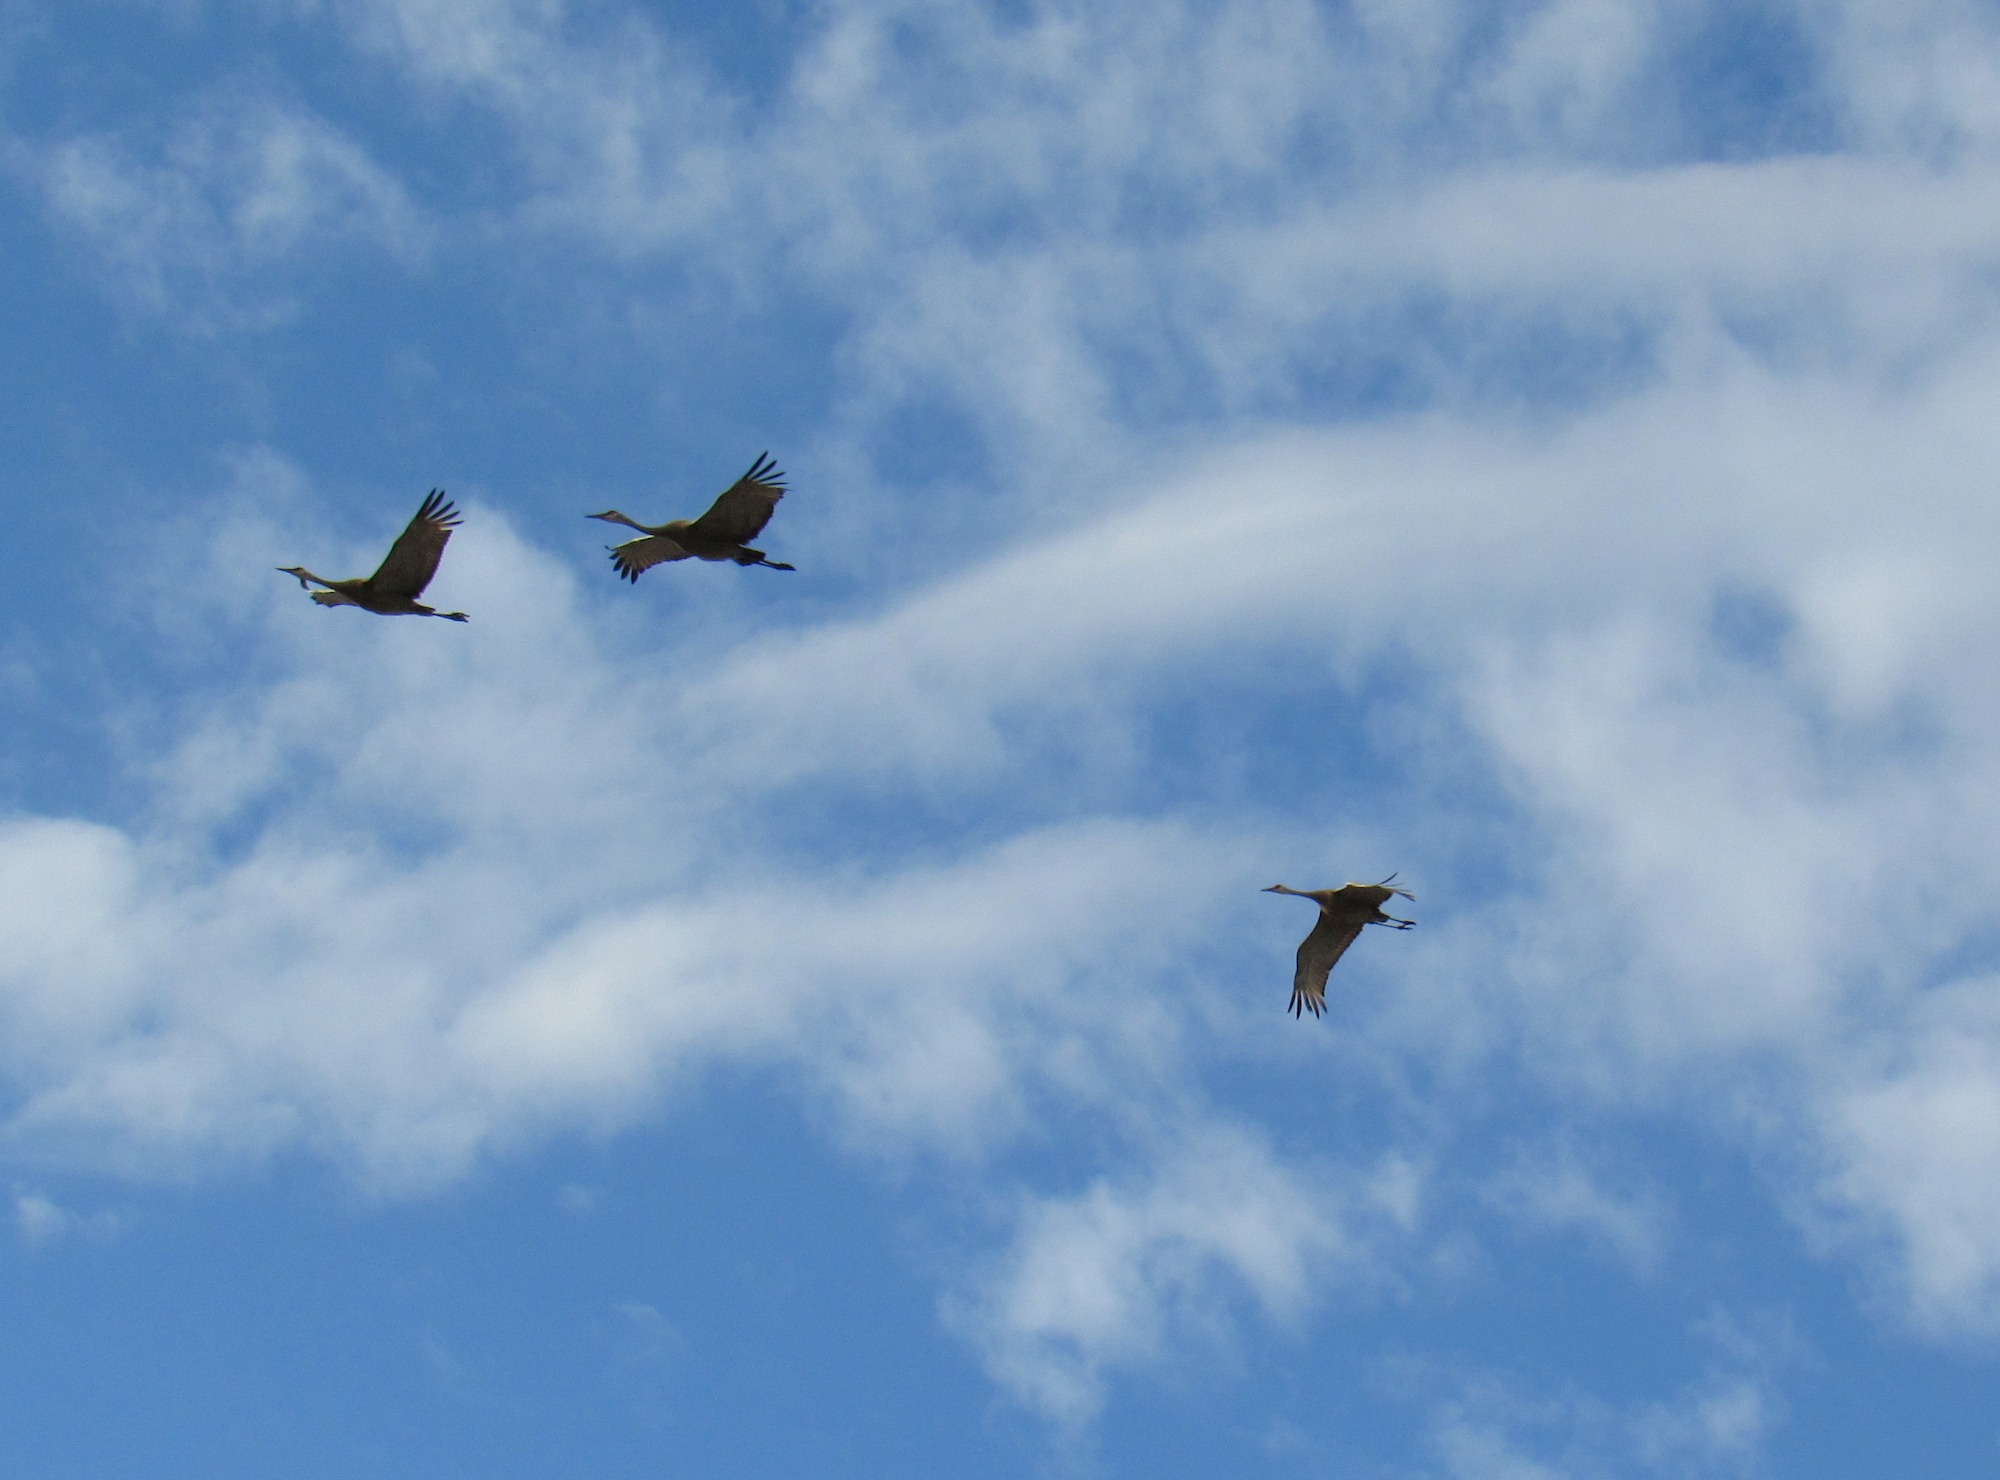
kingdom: Animalia
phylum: Chordata
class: Aves
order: Gruiformes
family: Gruidae
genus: Grus
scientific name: Grus canadensis
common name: Sandhill crane
